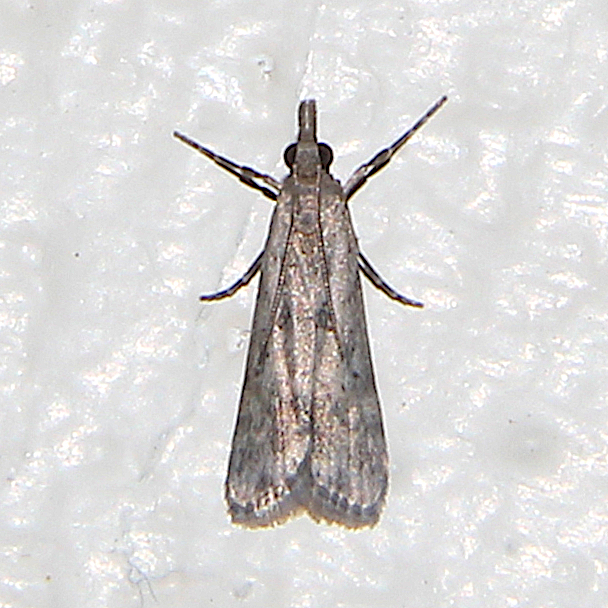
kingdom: Animalia
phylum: Arthropoda
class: Insecta
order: Lepidoptera
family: Crambidae
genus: Eudonia
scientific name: Eudonia leptalea
